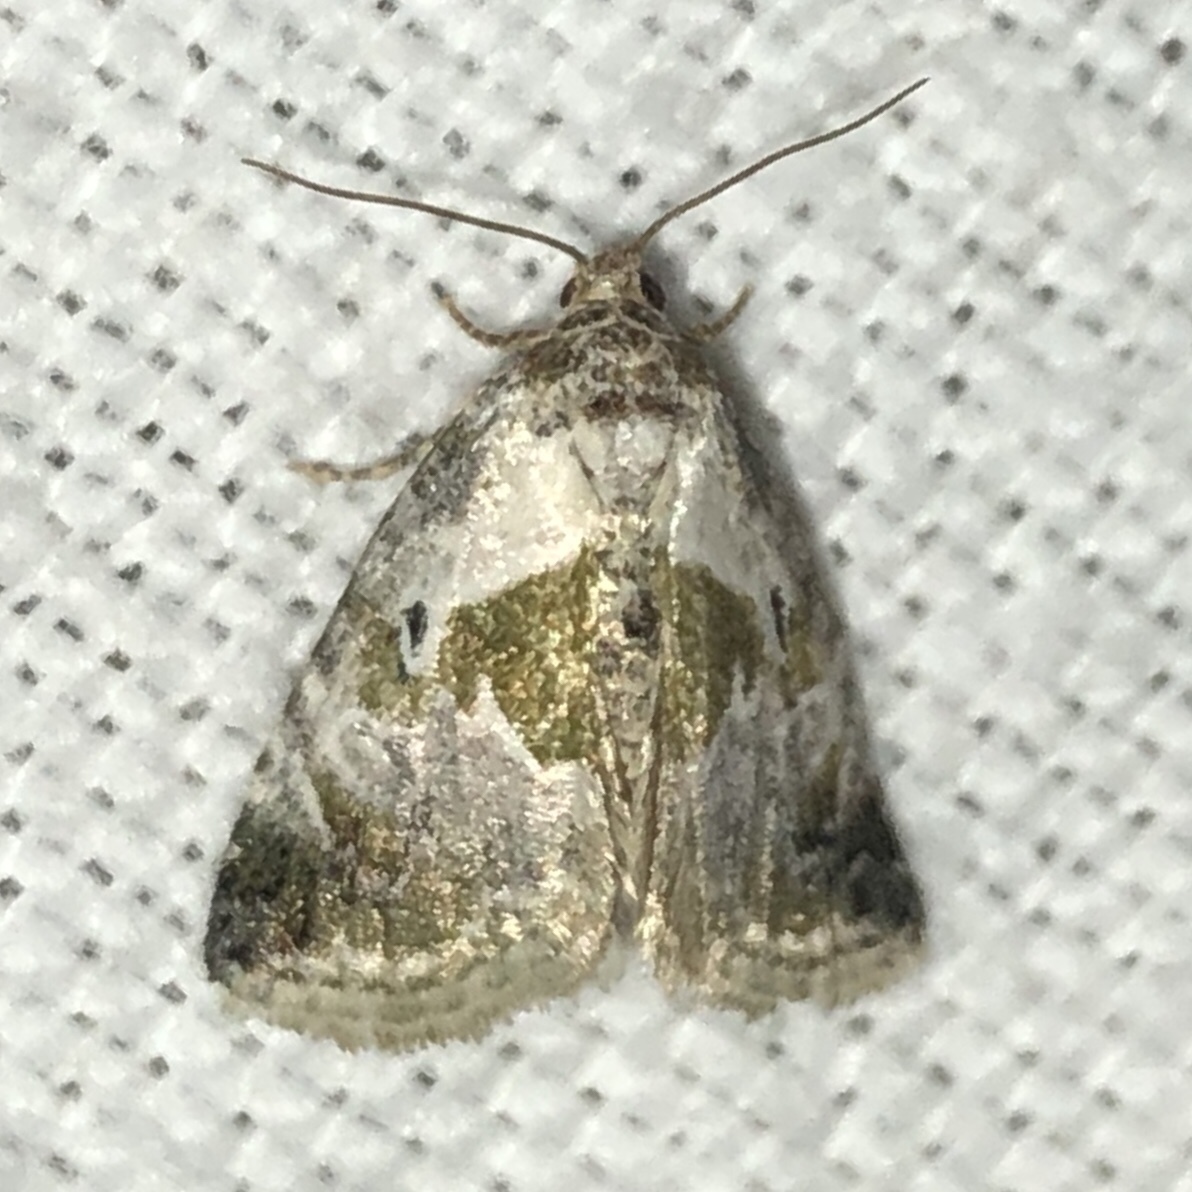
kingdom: Animalia
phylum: Arthropoda
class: Insecta
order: Lepidoptera
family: Noctuidae
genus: Maliattha
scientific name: Maliattha synochitis
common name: Black-dotted glyph
